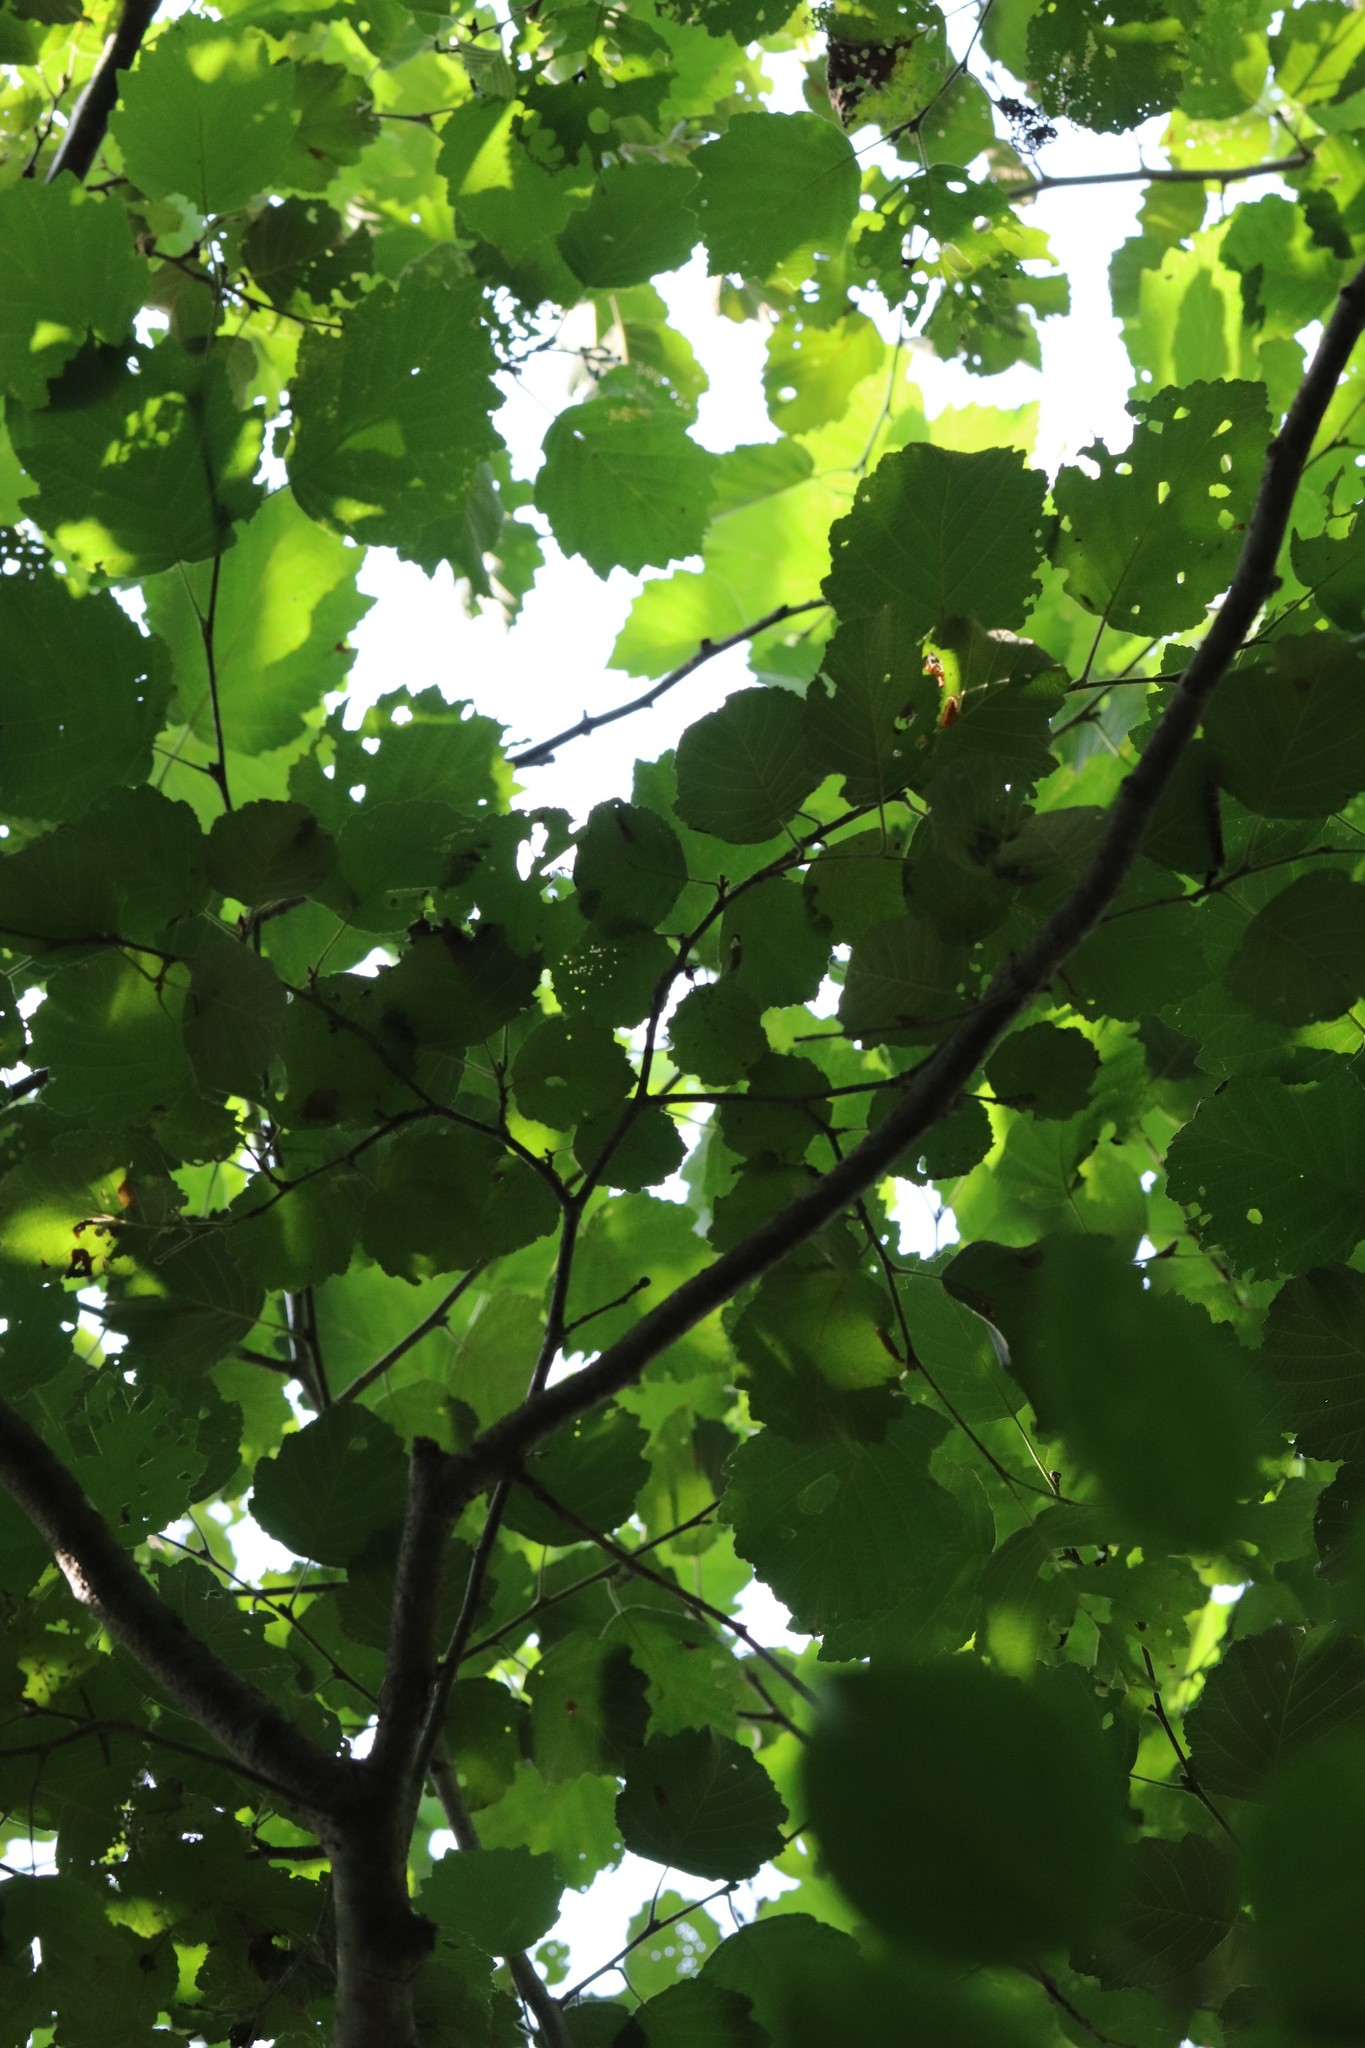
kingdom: Plantae
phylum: Tracheophyta
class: Magnoliopsida
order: Fagales
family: Betulaceae
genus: Alnus
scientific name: Alnus hirsuta
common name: Manchurian alder
